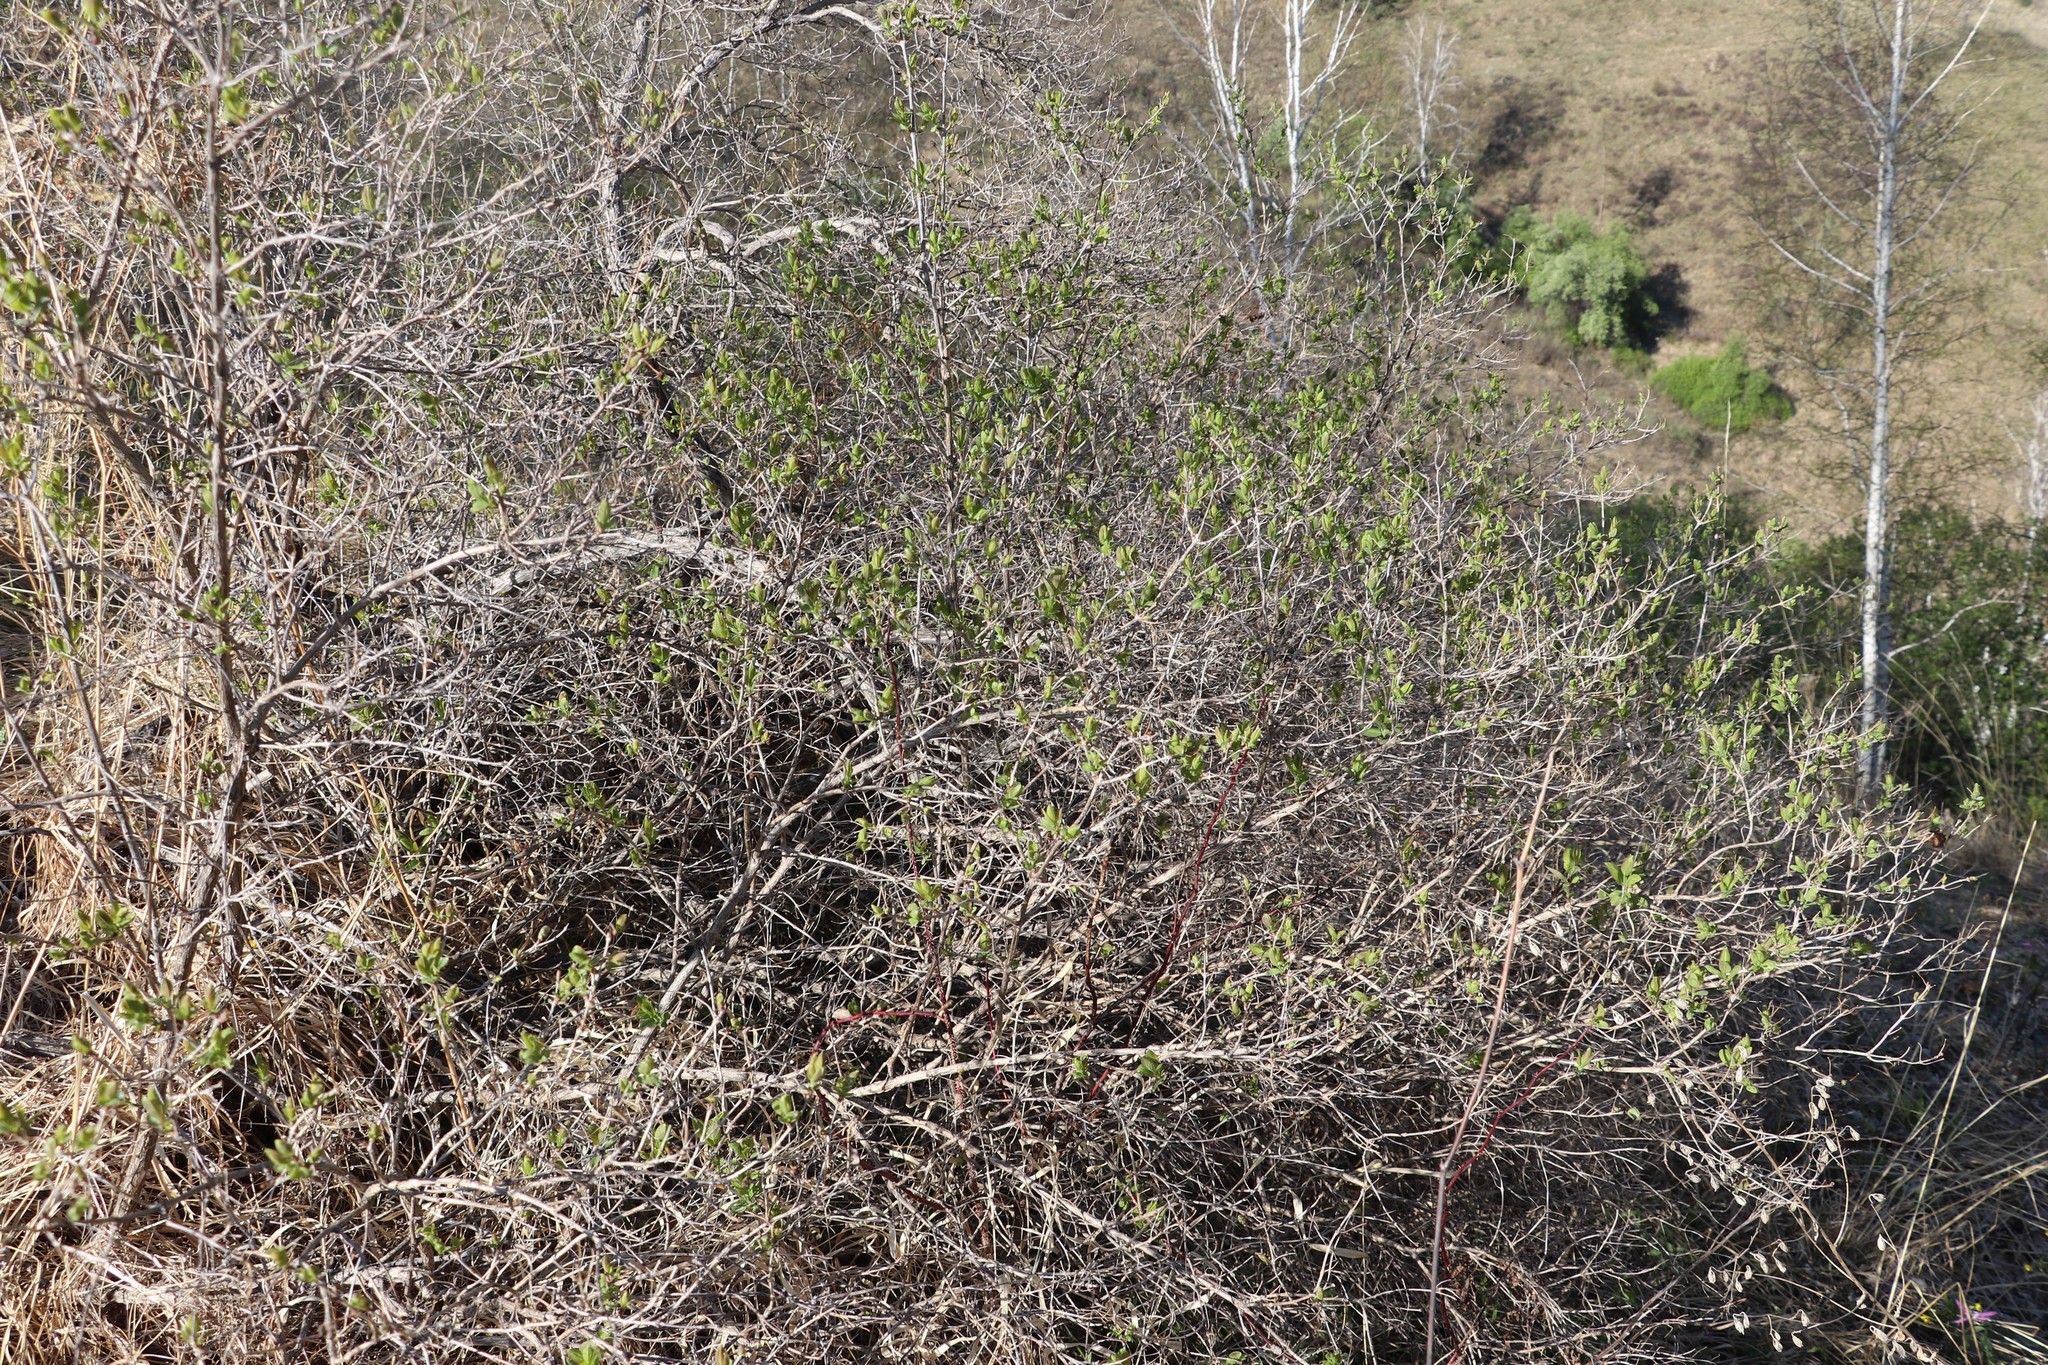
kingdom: Plantae
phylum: Tracheophyta
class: Magnoliopsida
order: Dipsacales
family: Caprifoliaceae
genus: Lonicera
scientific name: Lonicera tatarica
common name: Tatarian honeysuckle
